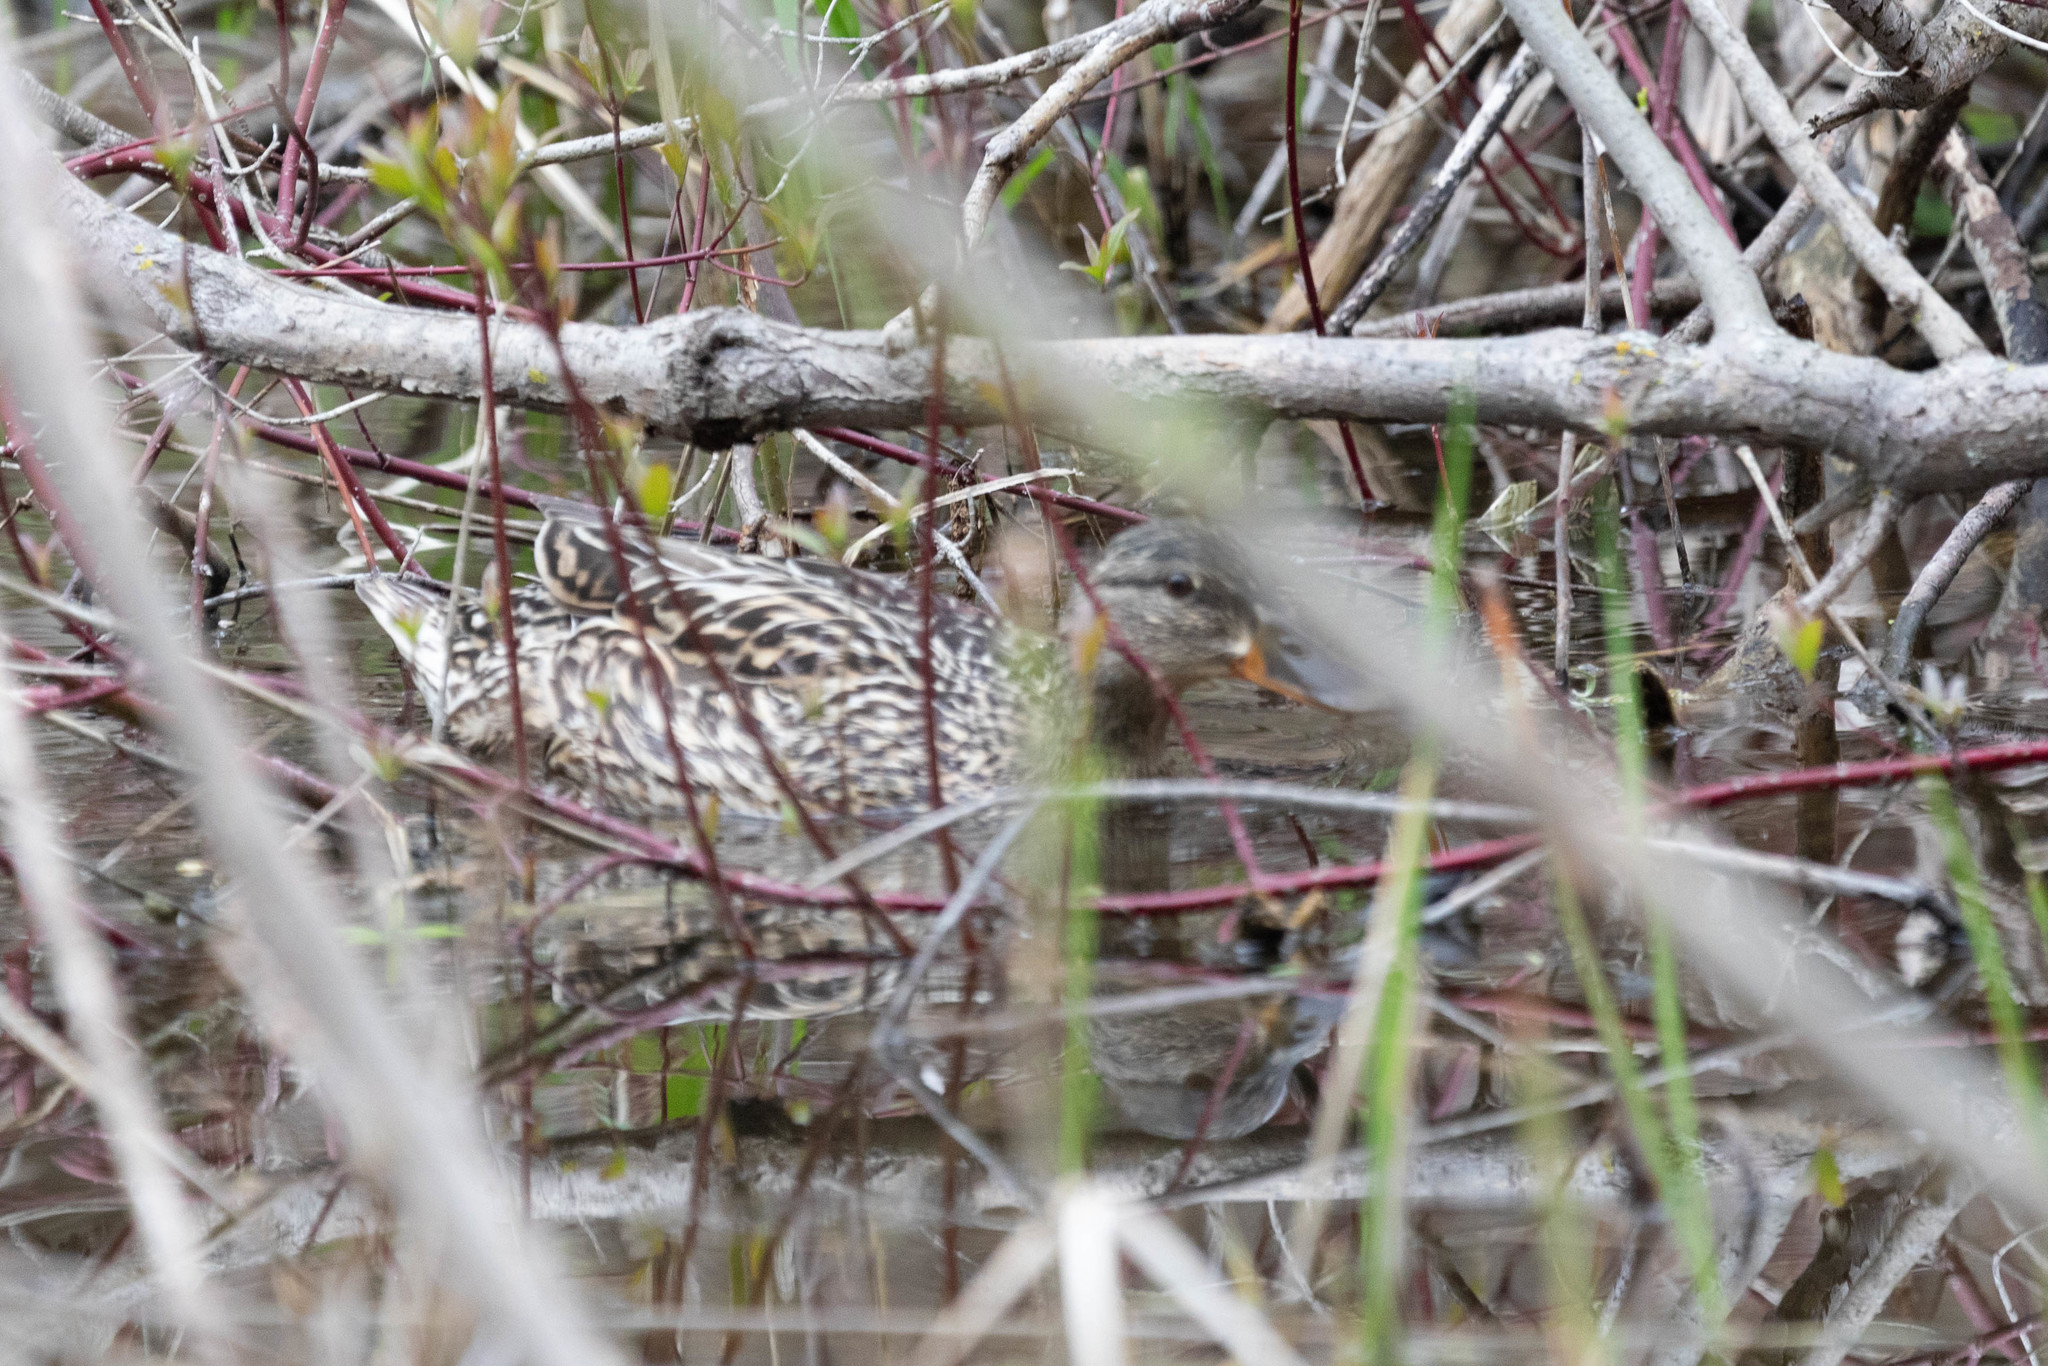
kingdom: Animalia
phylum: Chordata
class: Aves
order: Anseriformes
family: Anatidae
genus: Anas
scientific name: Anas platyrhynchos
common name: Mallard
